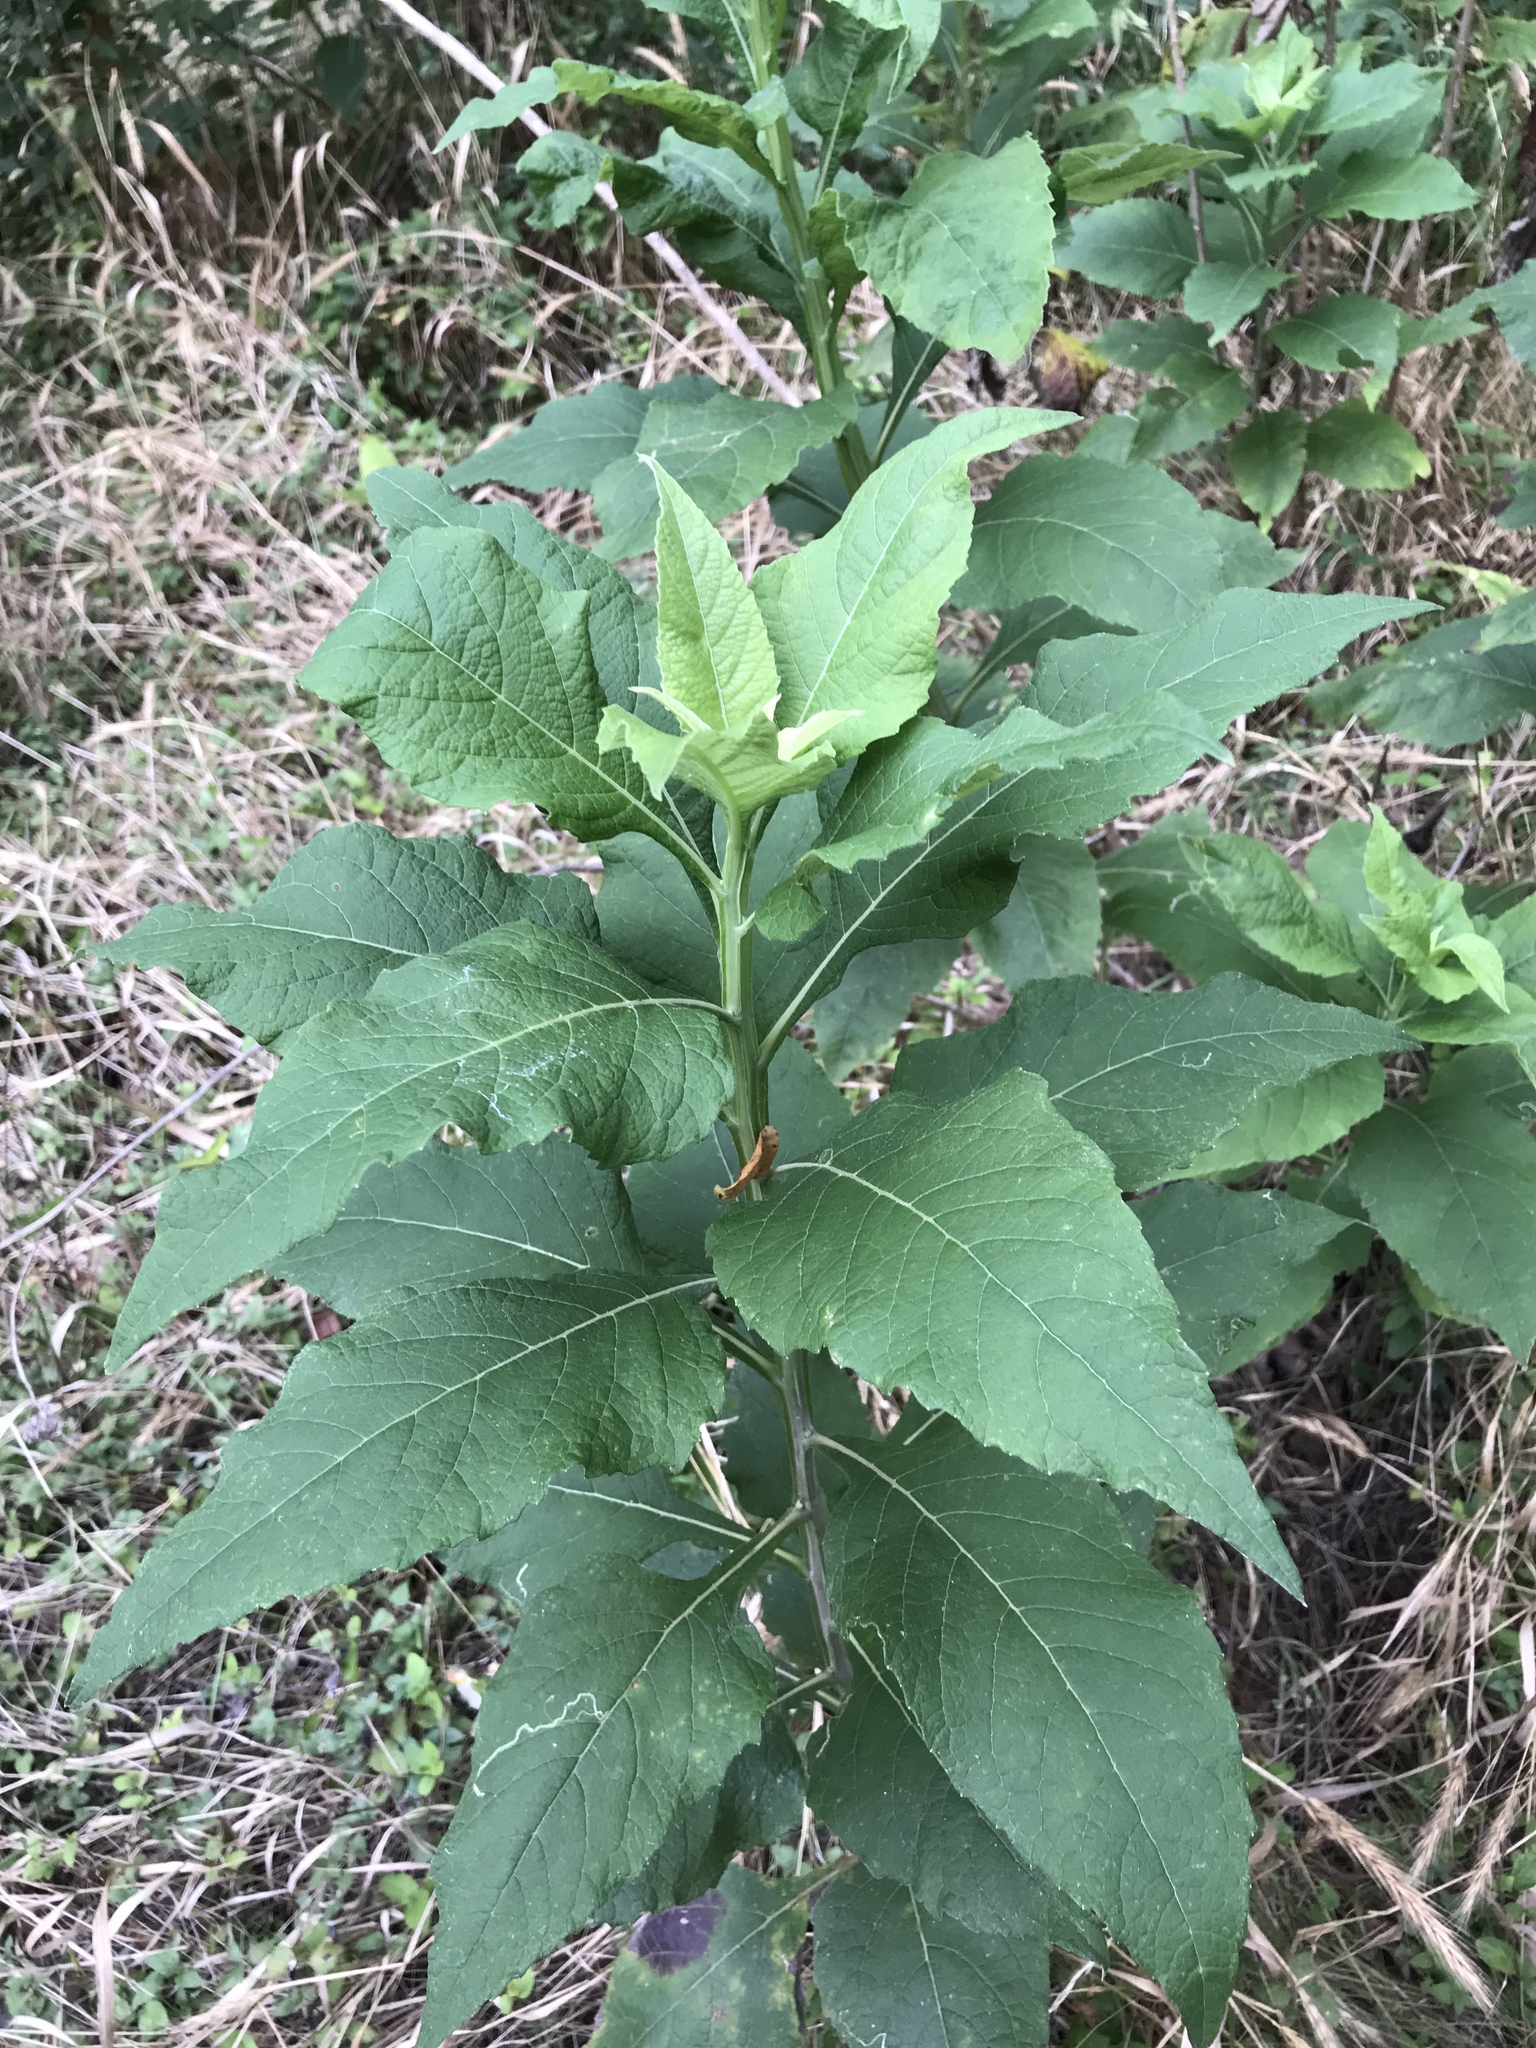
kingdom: Plantae
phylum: Tracheophyta
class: Magnoliopsida
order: Asterales
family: Asteraceae
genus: Verbesina
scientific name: Verbesina virginica
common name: Frostweed
